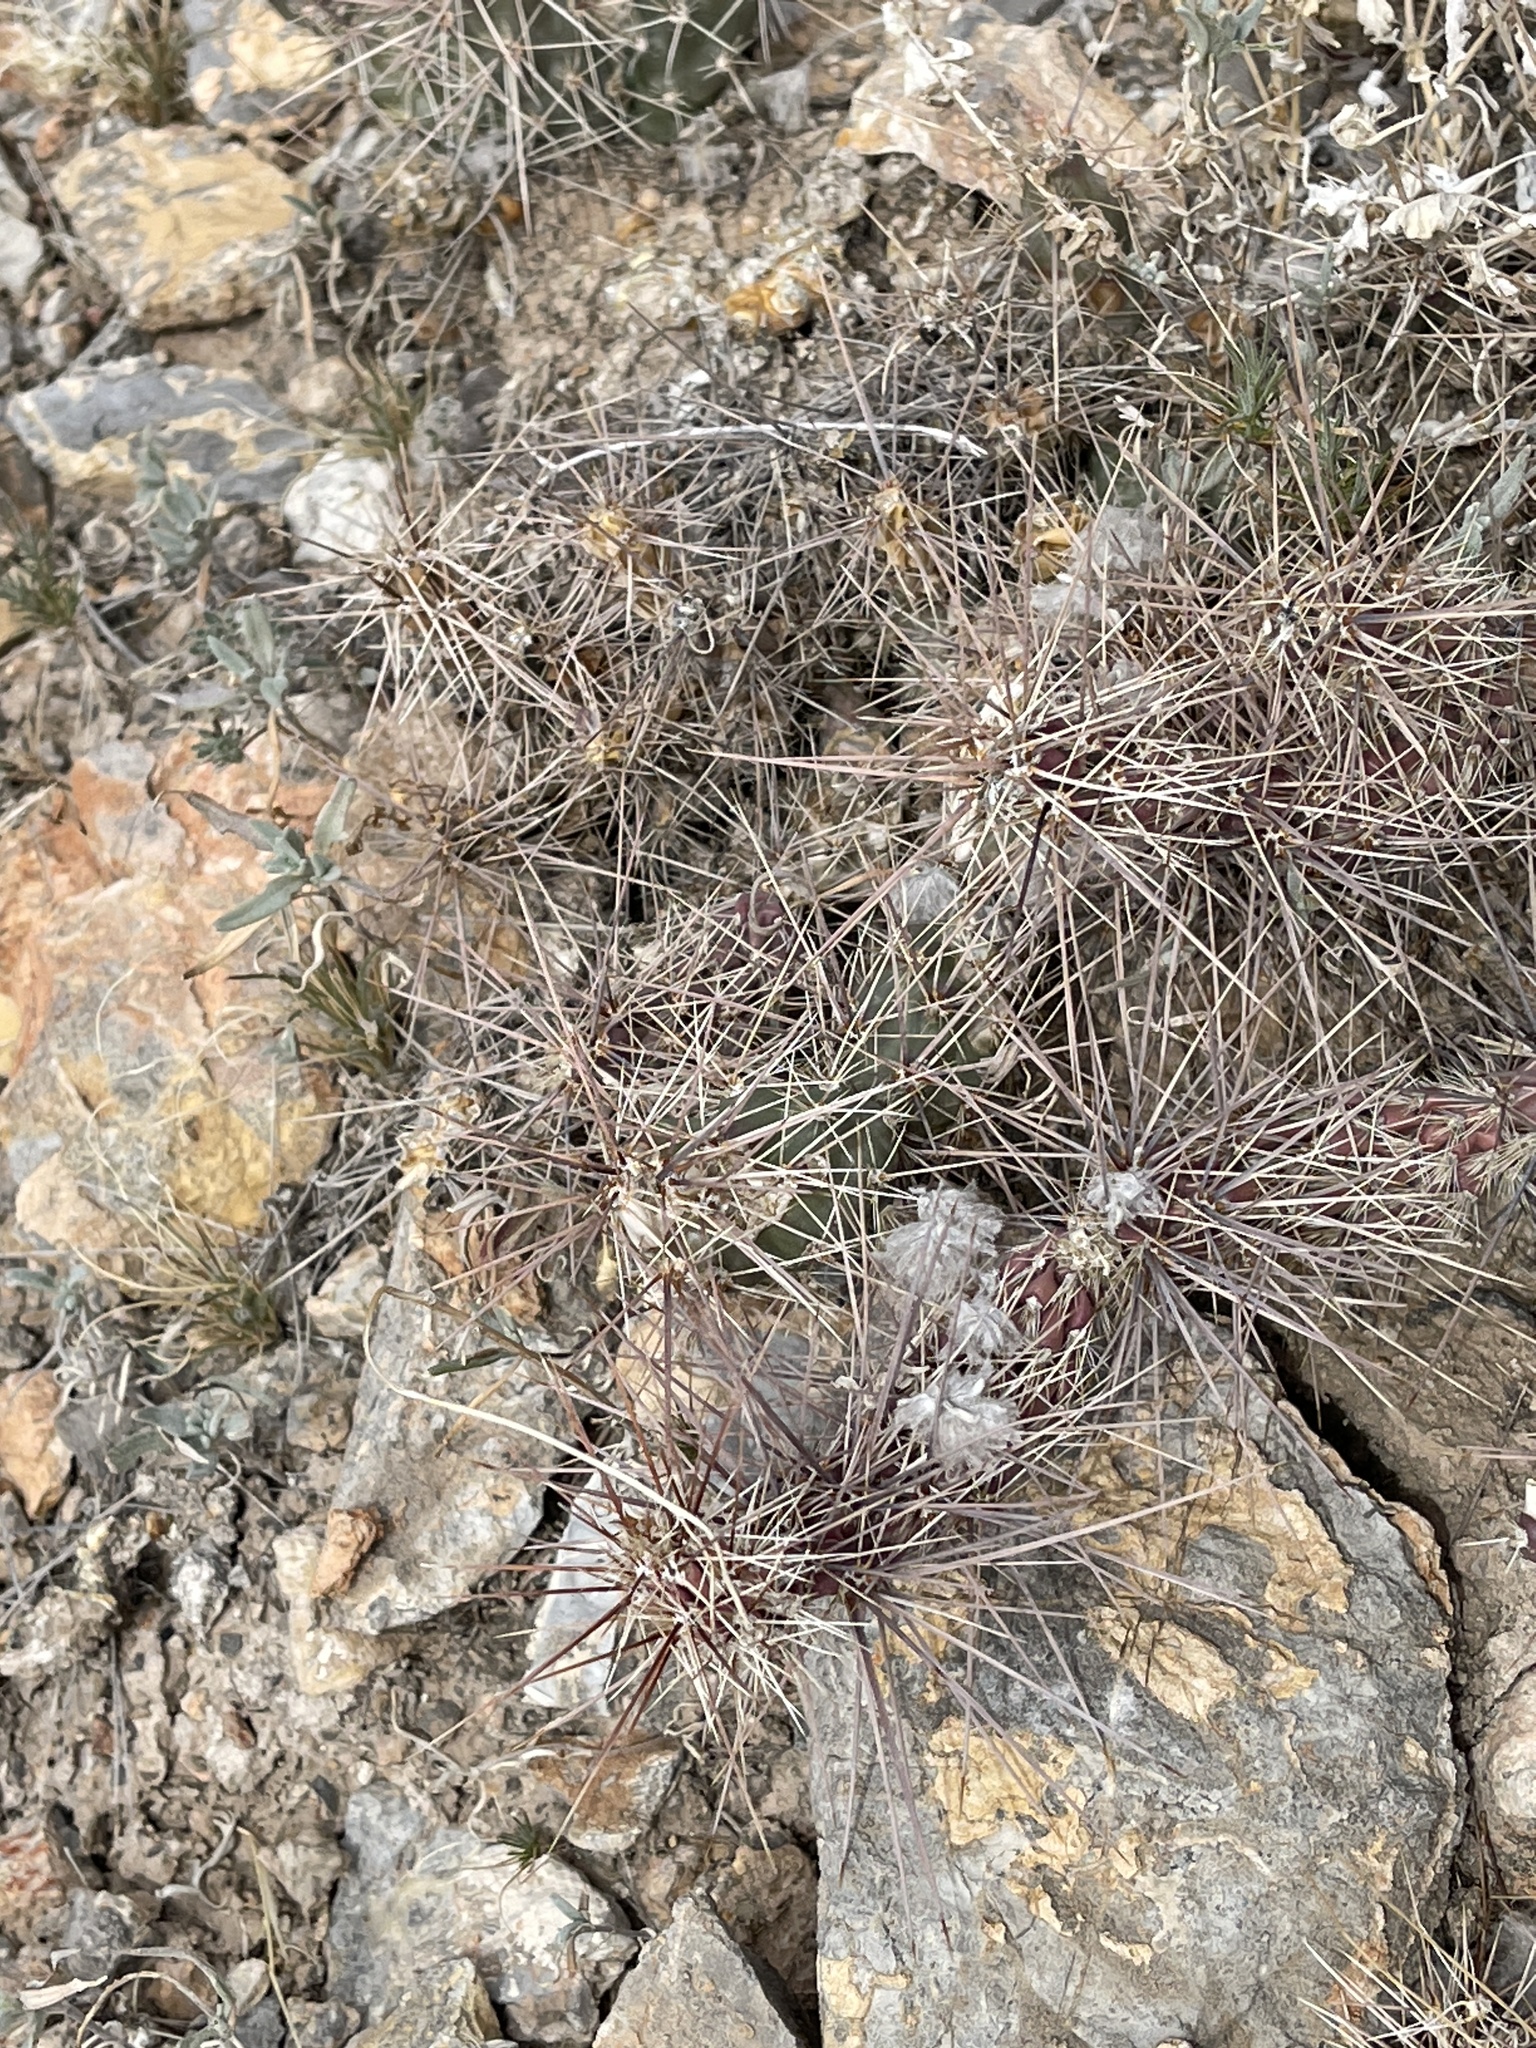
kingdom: Plantae
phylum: Tracheophyta
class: Magnoliopsida
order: Caryophyllales
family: Cactaceae
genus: Grusonia
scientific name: Grusonia grahamii
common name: Graham's club cactus
